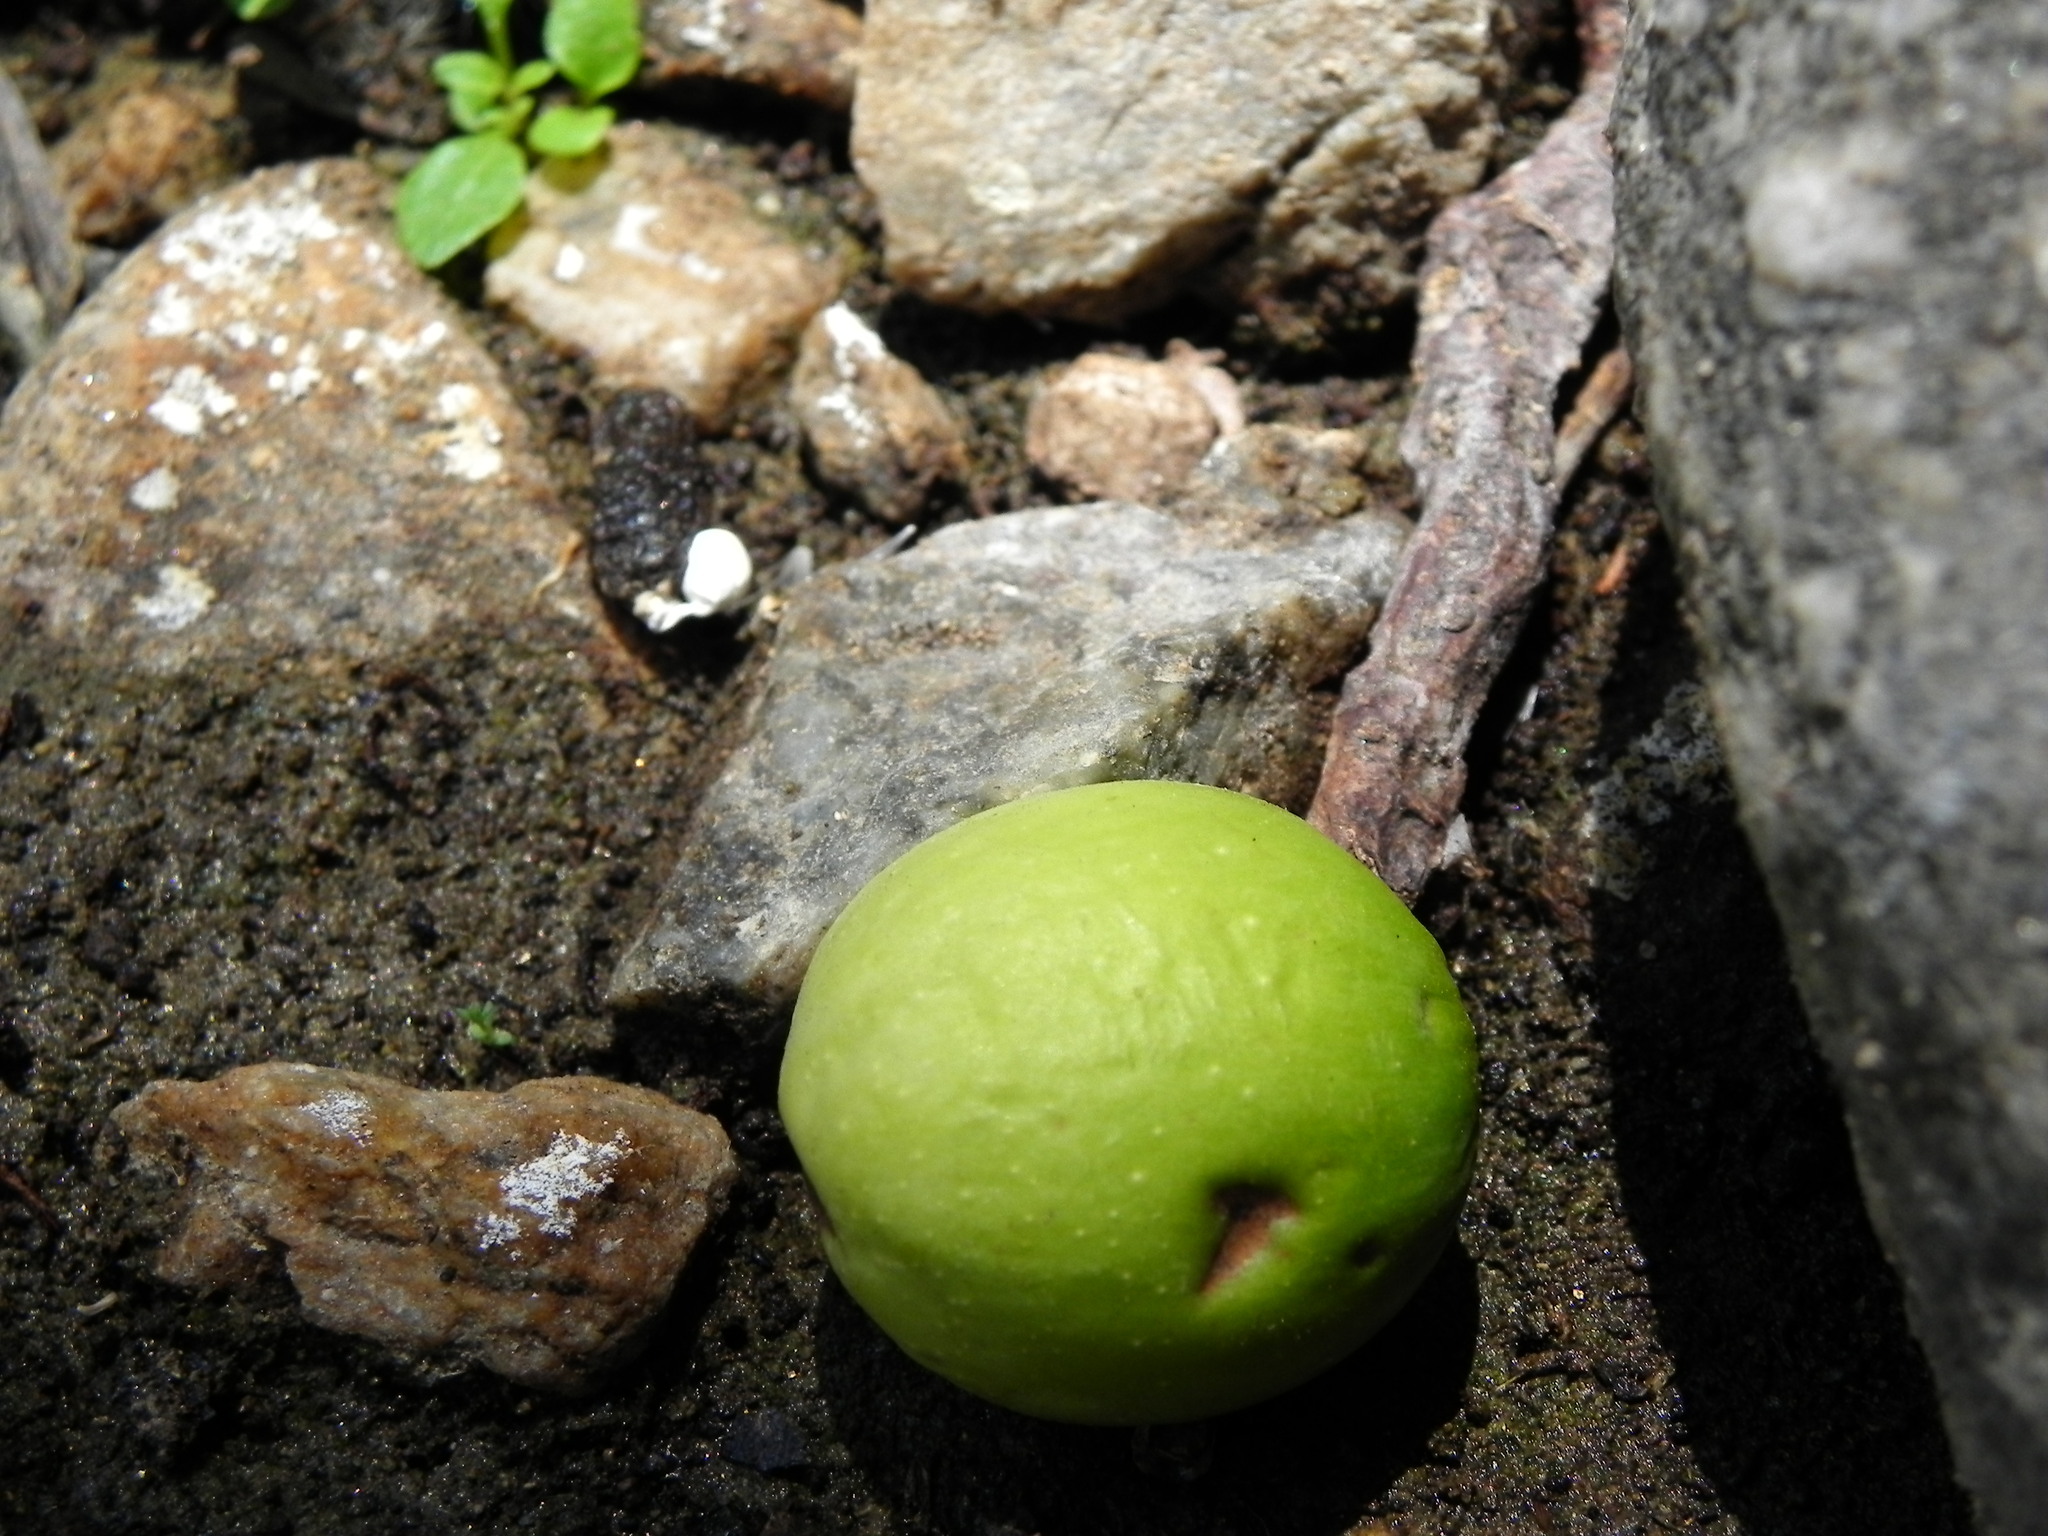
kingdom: Plantae
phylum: Tracheophyta
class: Magnoliopsida
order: Laurales
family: Lauraceae
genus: Umbellularia
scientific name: Umbellularia californica
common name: California bay
